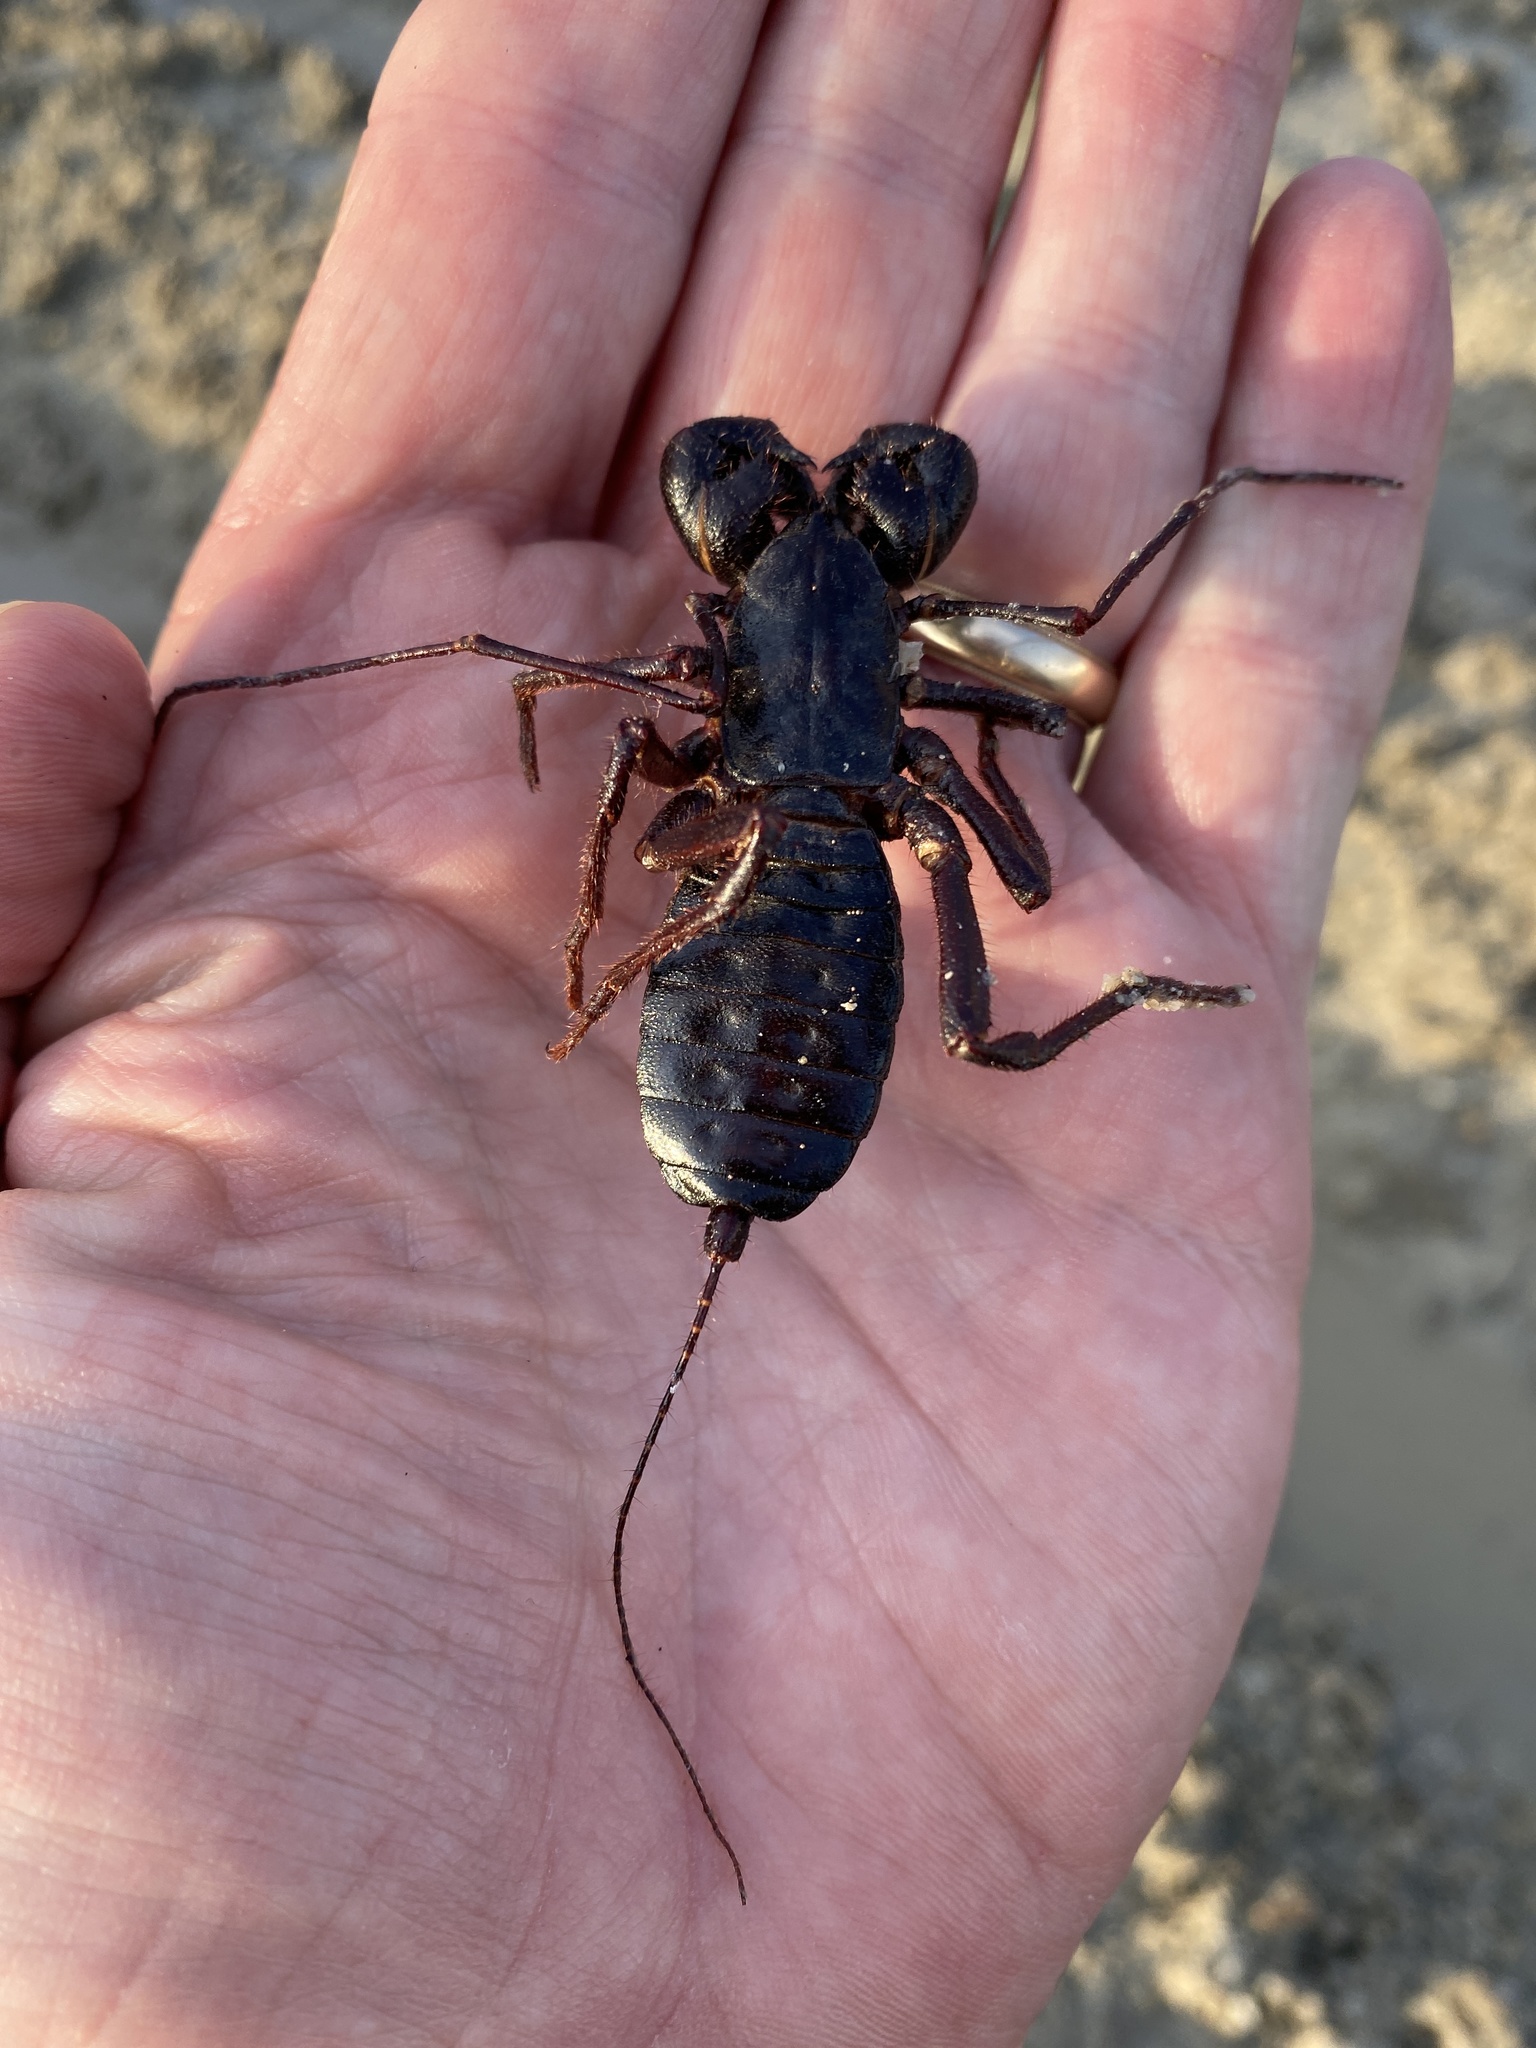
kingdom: Animalia
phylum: Arthropoda
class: Arachnida
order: Uropygi
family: Thelyphonidae
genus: Mastigoproctus
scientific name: Mastigoproctus giganteus
